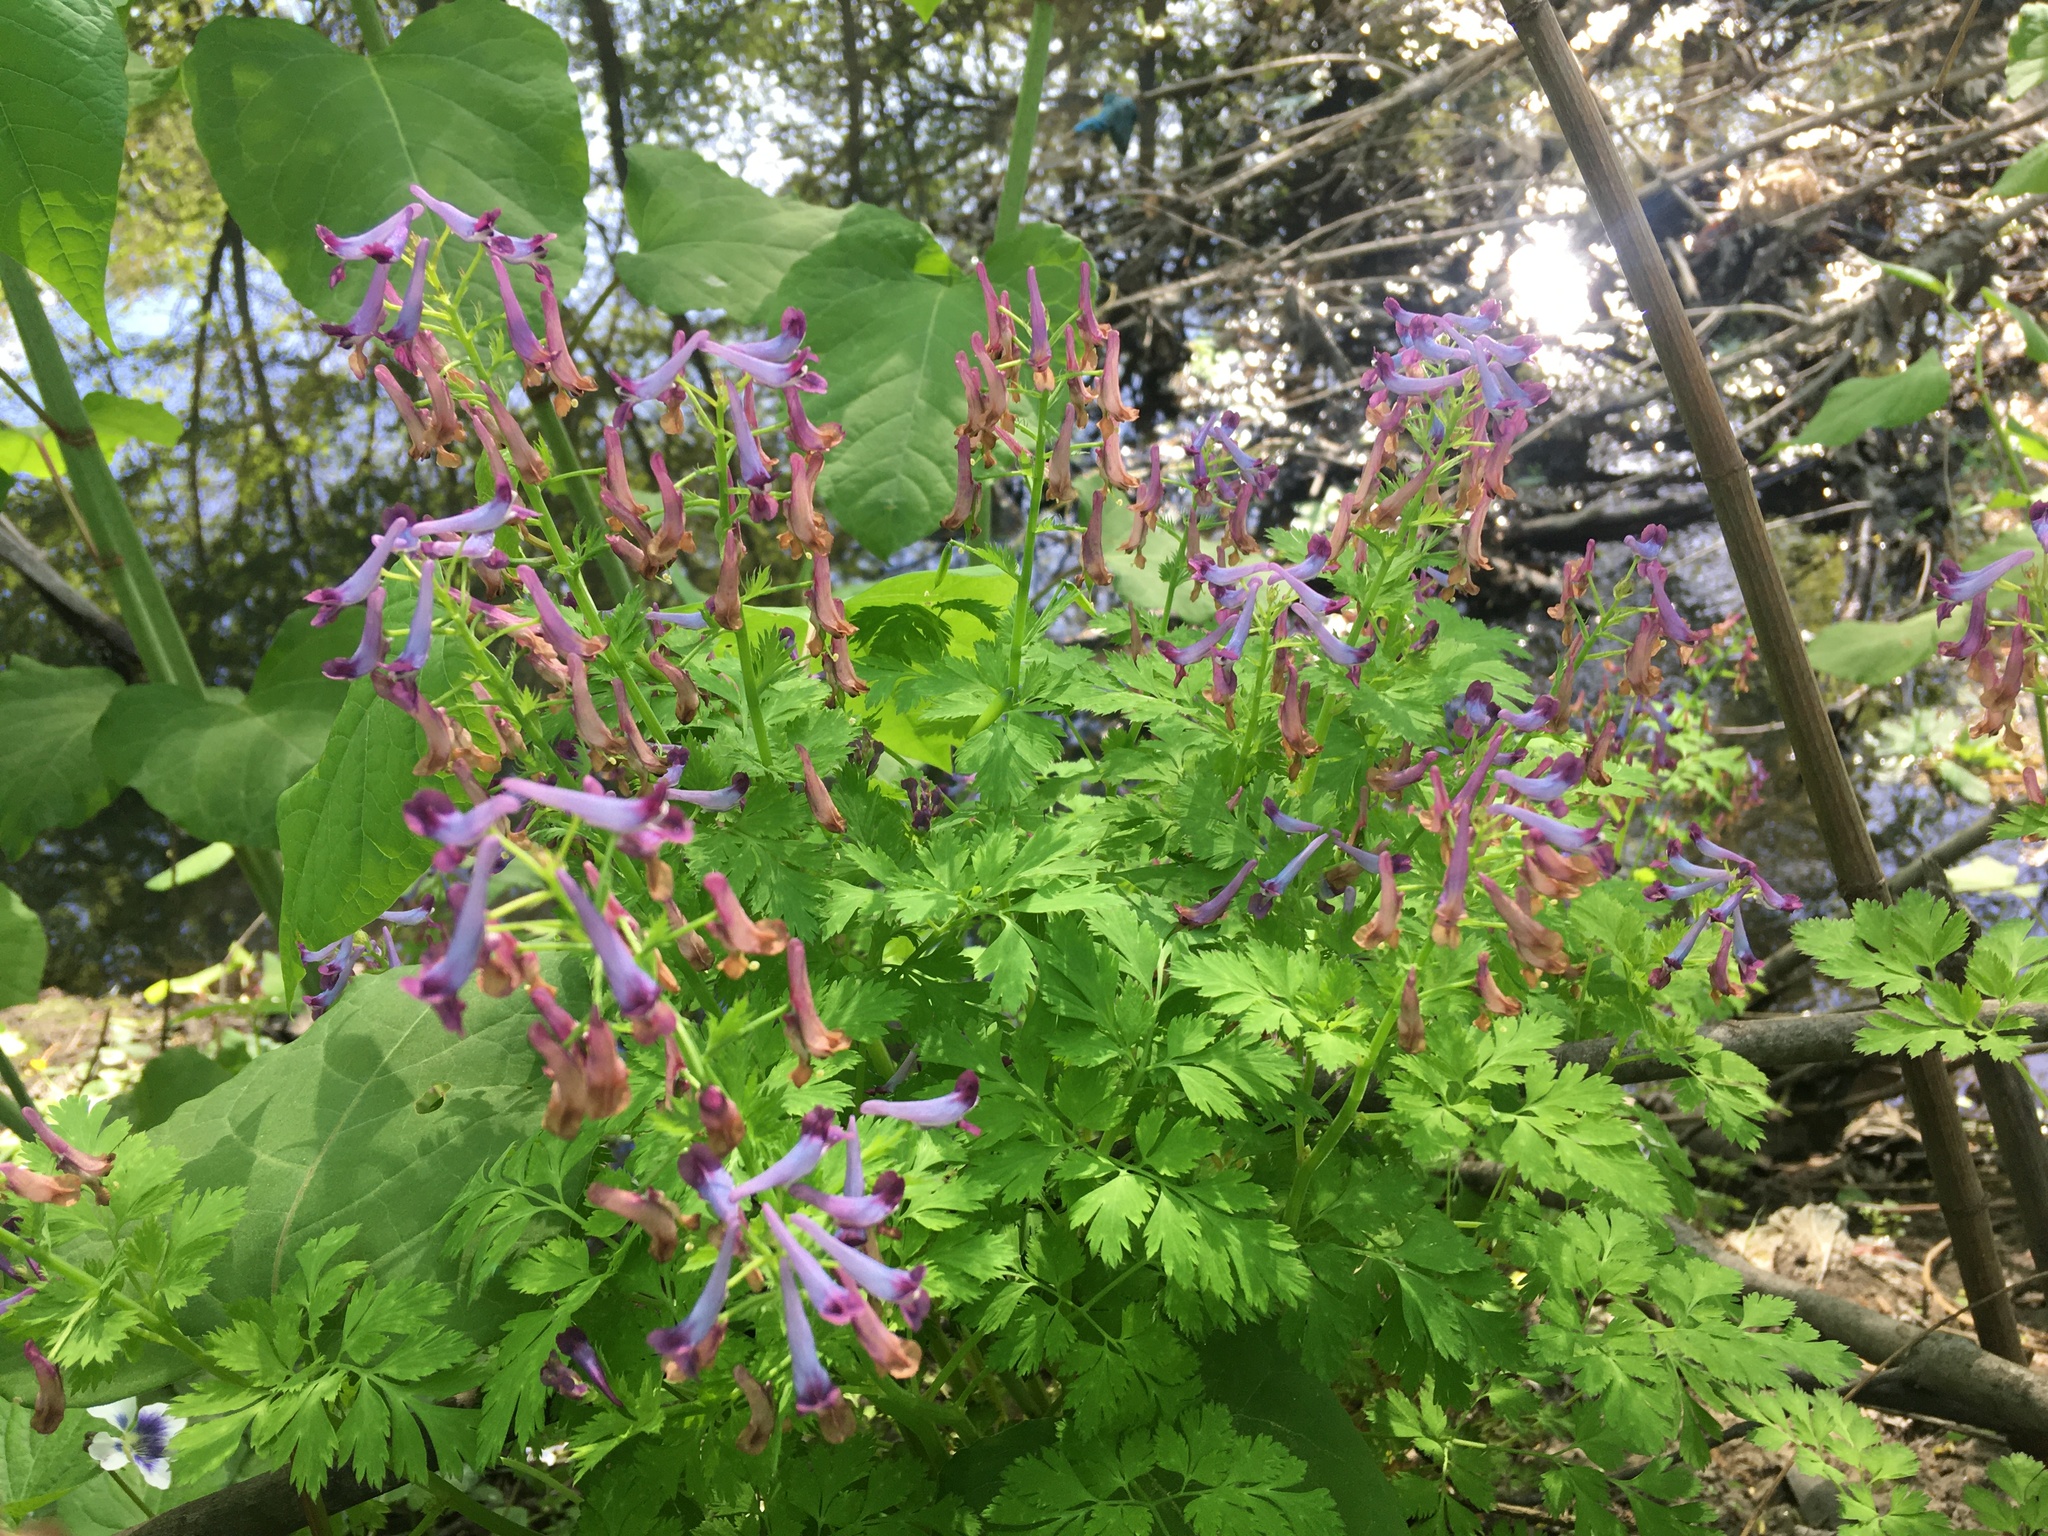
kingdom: Plantae
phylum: Tracheophyta
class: Magnoliopsida
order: Ranunculales
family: Papaveraceae
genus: Corydalis
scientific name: Corydalis incisa
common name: Incised fumewort
